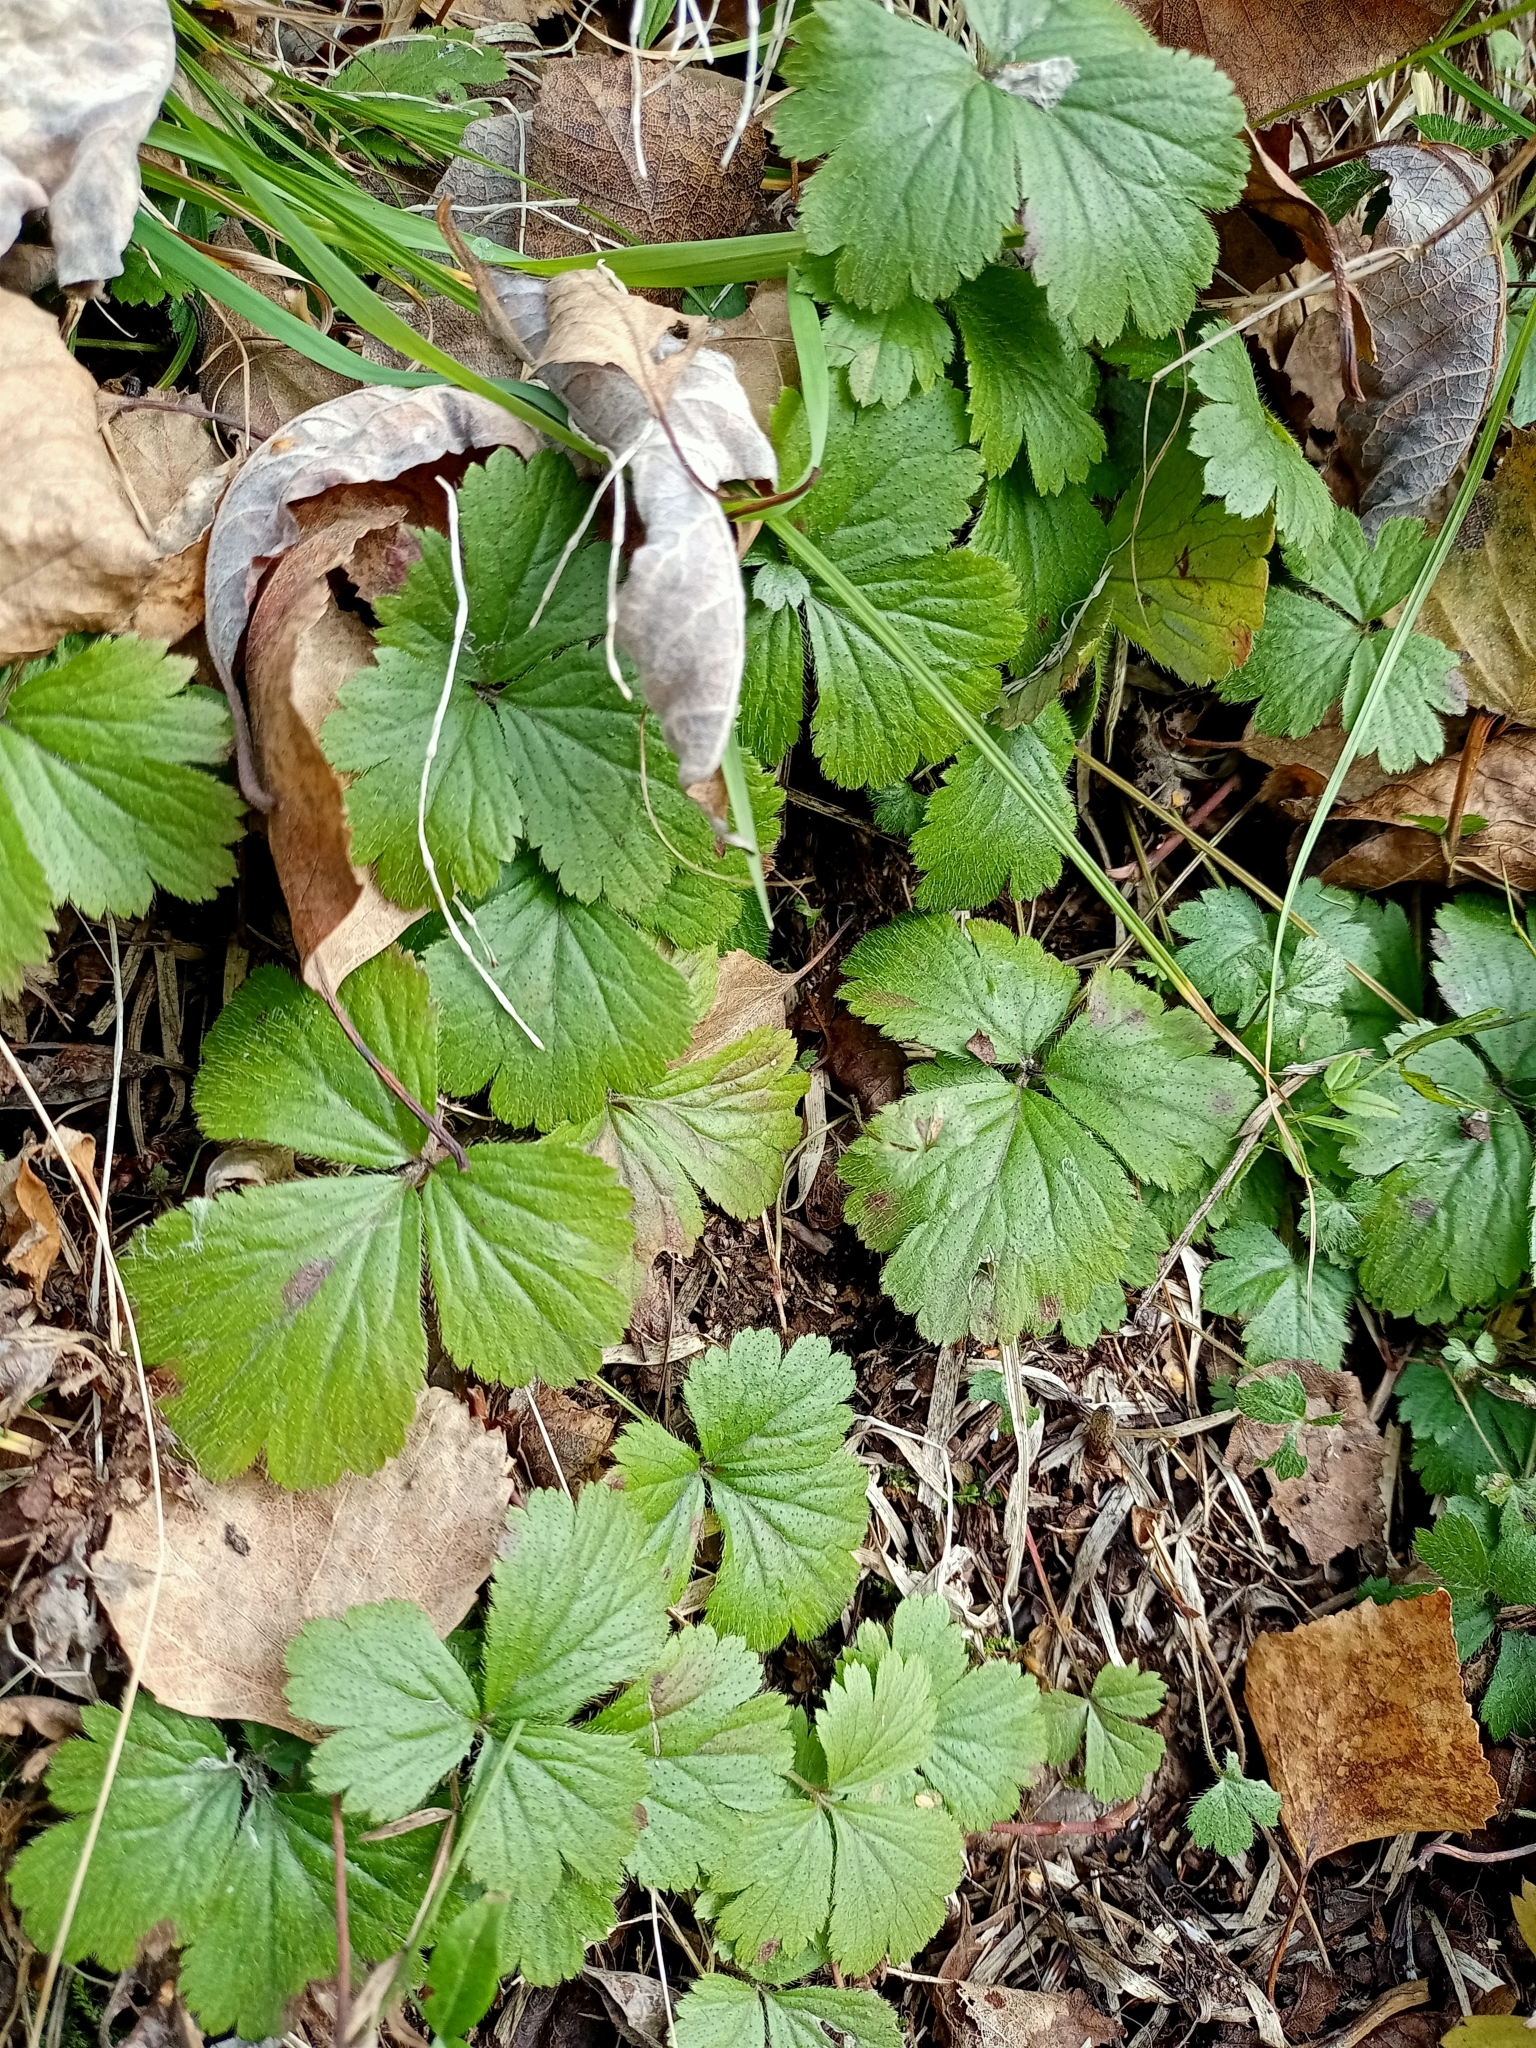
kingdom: Plantae
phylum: Tracheophyta
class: Magnoliopsida
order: Rosales
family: Rosaceae
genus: Geum
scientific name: Geum ternatum
